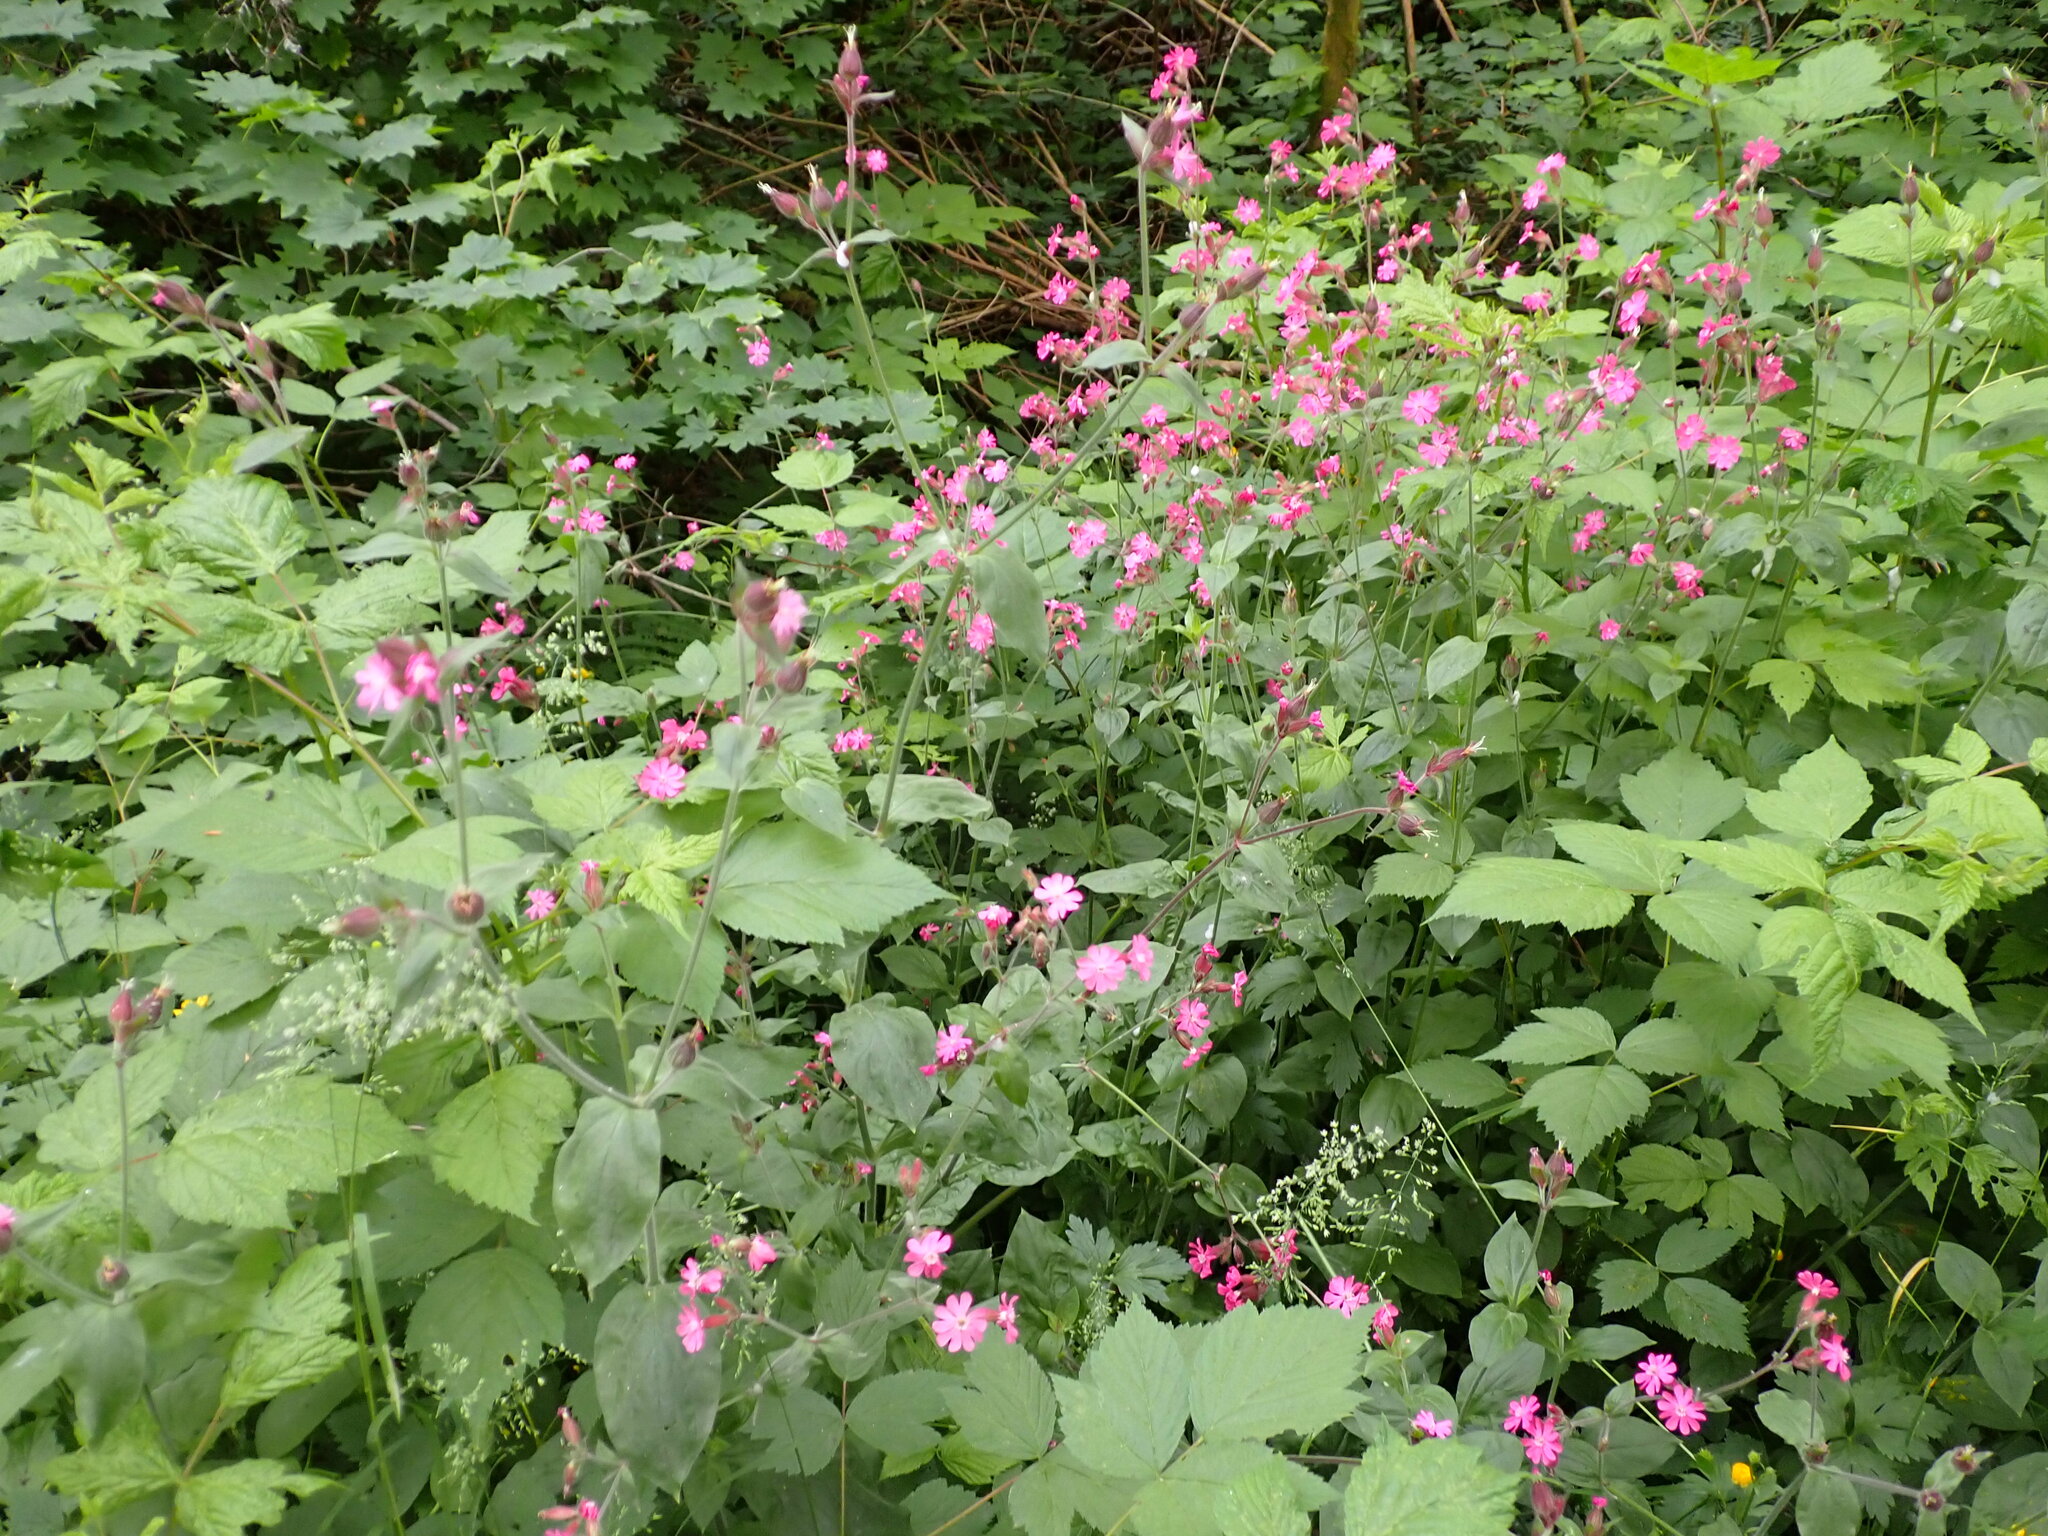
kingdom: Plantae
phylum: Tracheophyta
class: Magnoliopsida
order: Caryophyllales
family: Caryophyllaceae
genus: Silene
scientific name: Silene dioica
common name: Red campion
